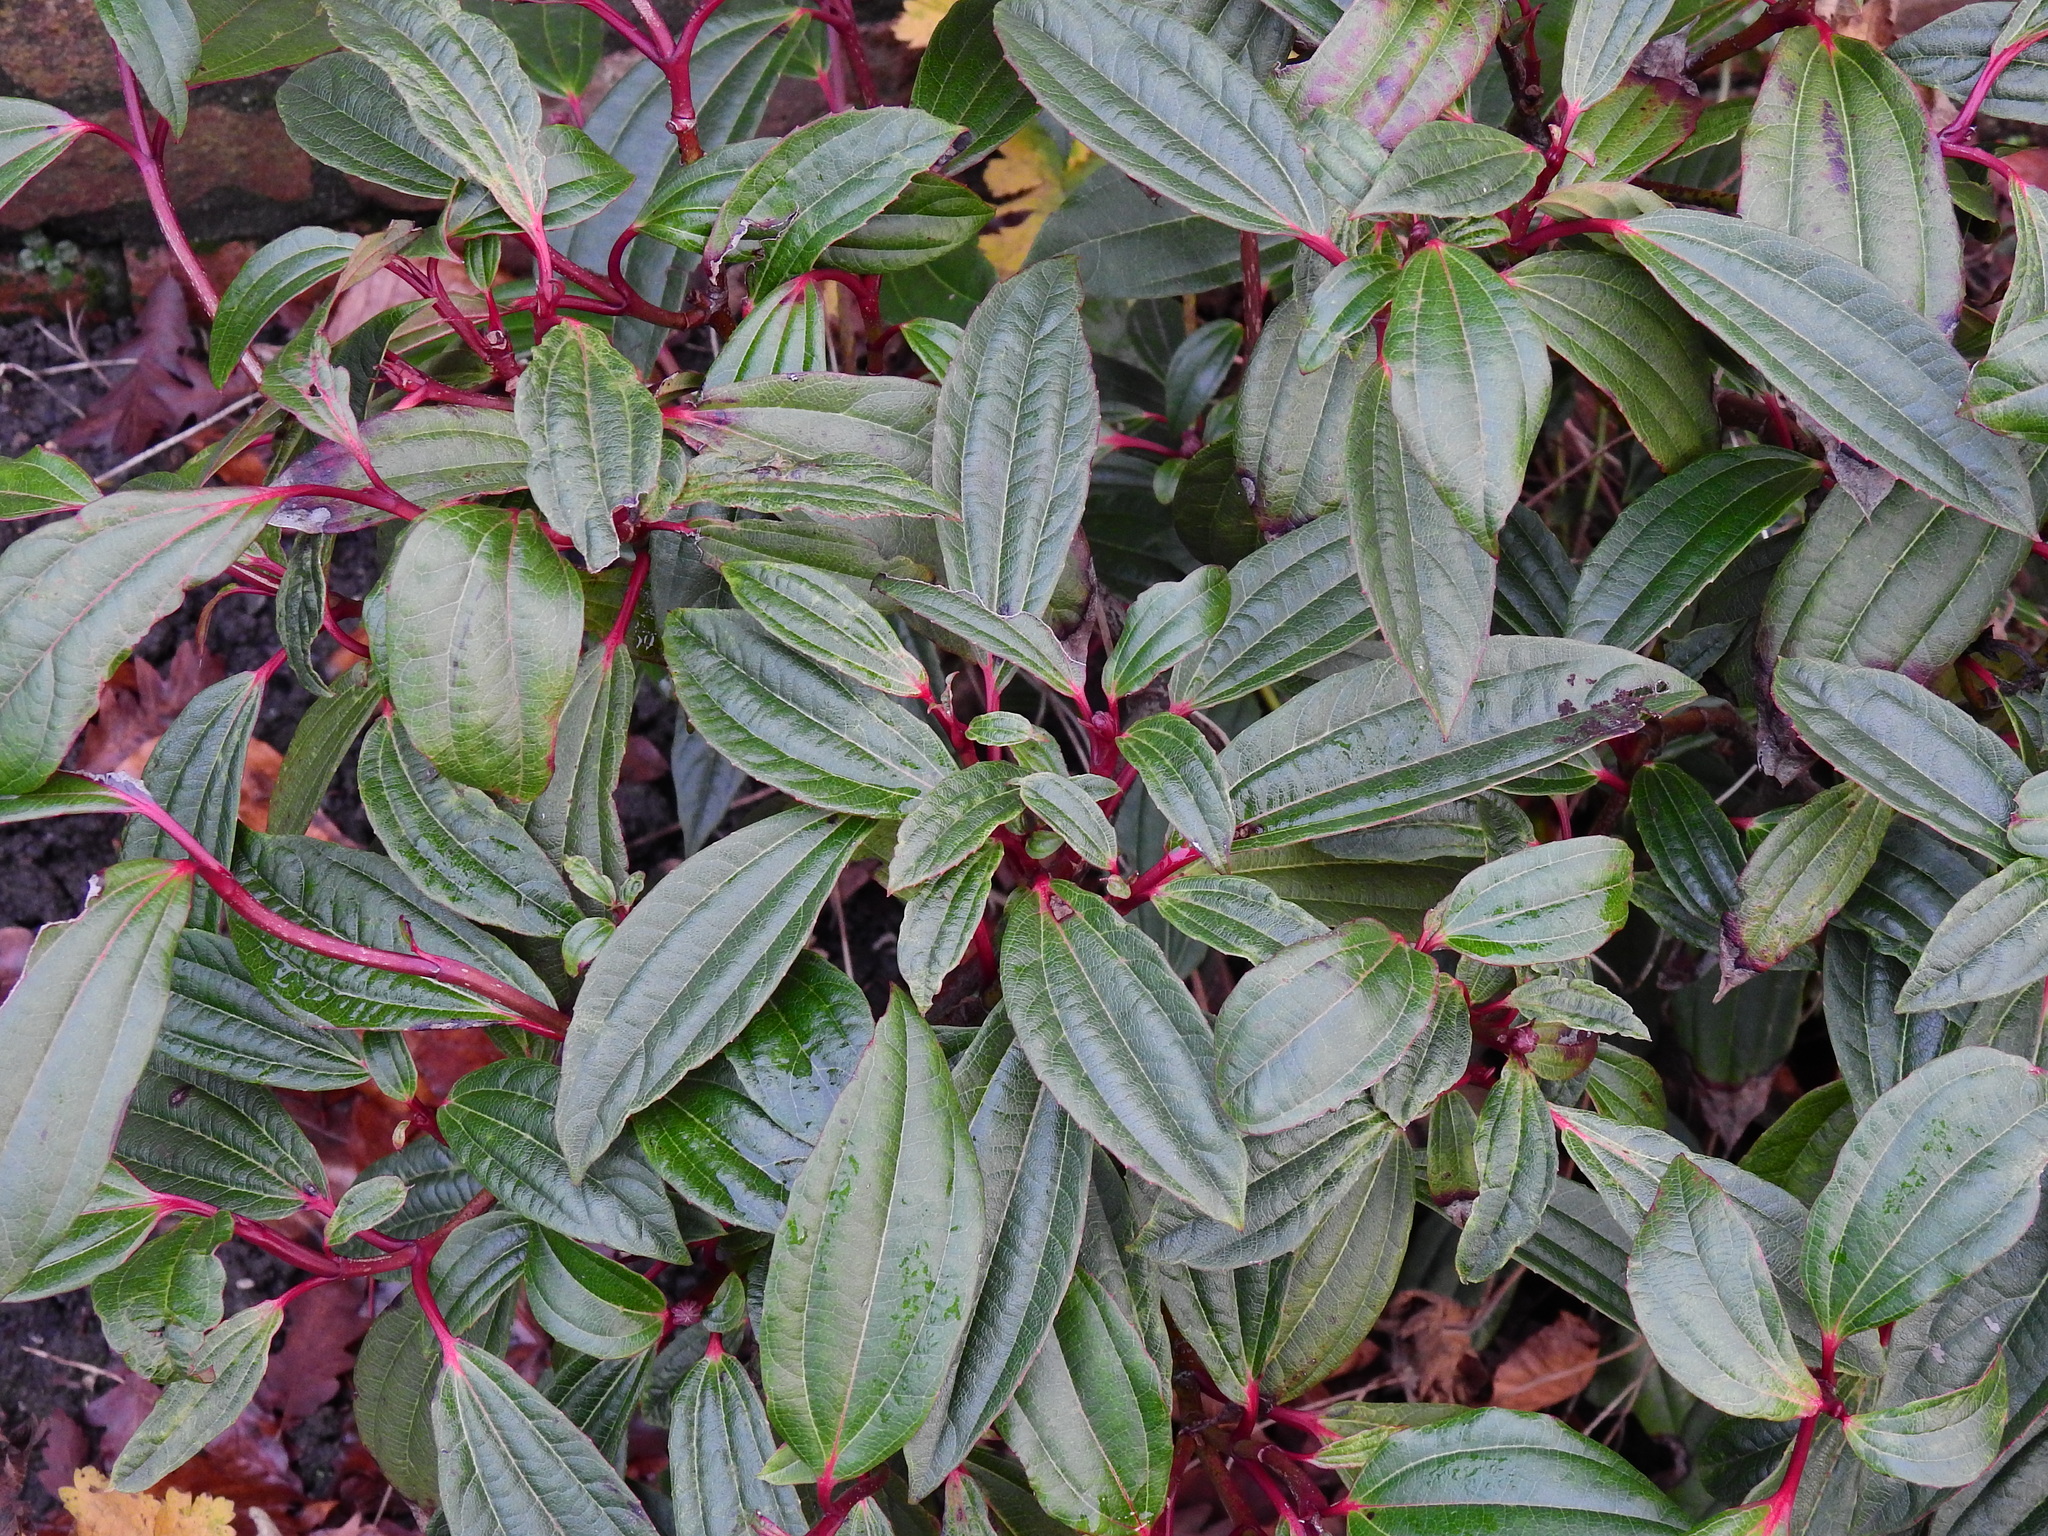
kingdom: Plantae
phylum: Tracheophyta
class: Magnoliopsida
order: Dipsacales
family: Viburnaceae
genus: Viburnum
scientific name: Viburnum davidi
